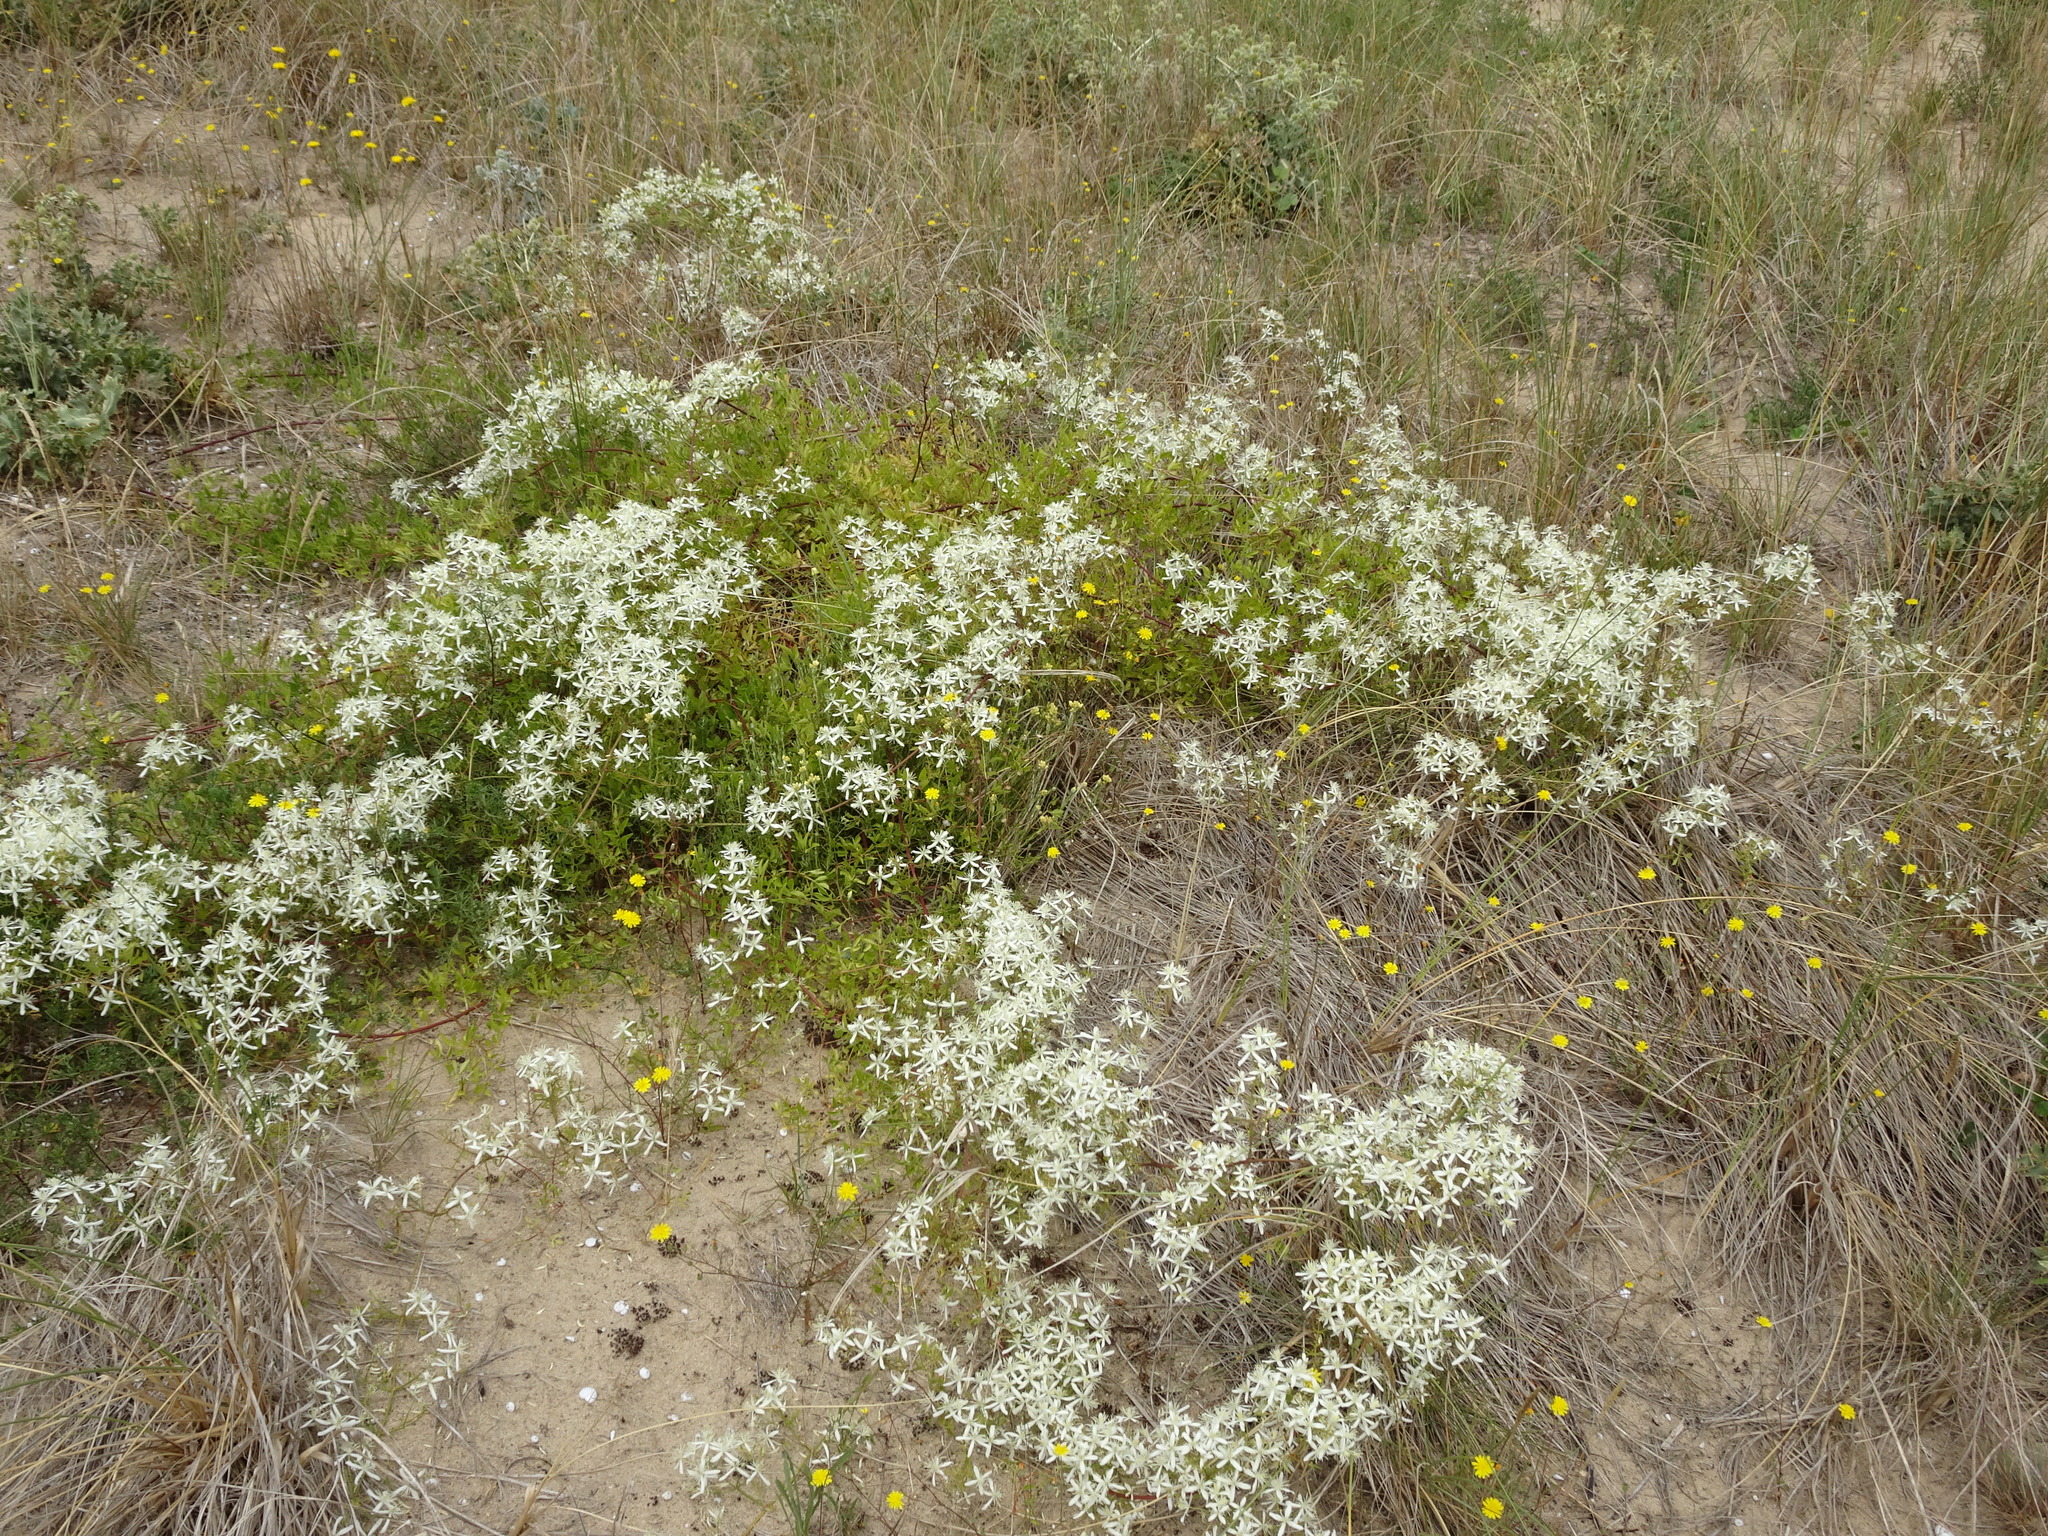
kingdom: Plantae
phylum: Tracheophyta
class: Magnoliopsida
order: Ranunculales
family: Ranunculaceae
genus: Clematis
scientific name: Clematis flammula
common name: Virgin's-bower
